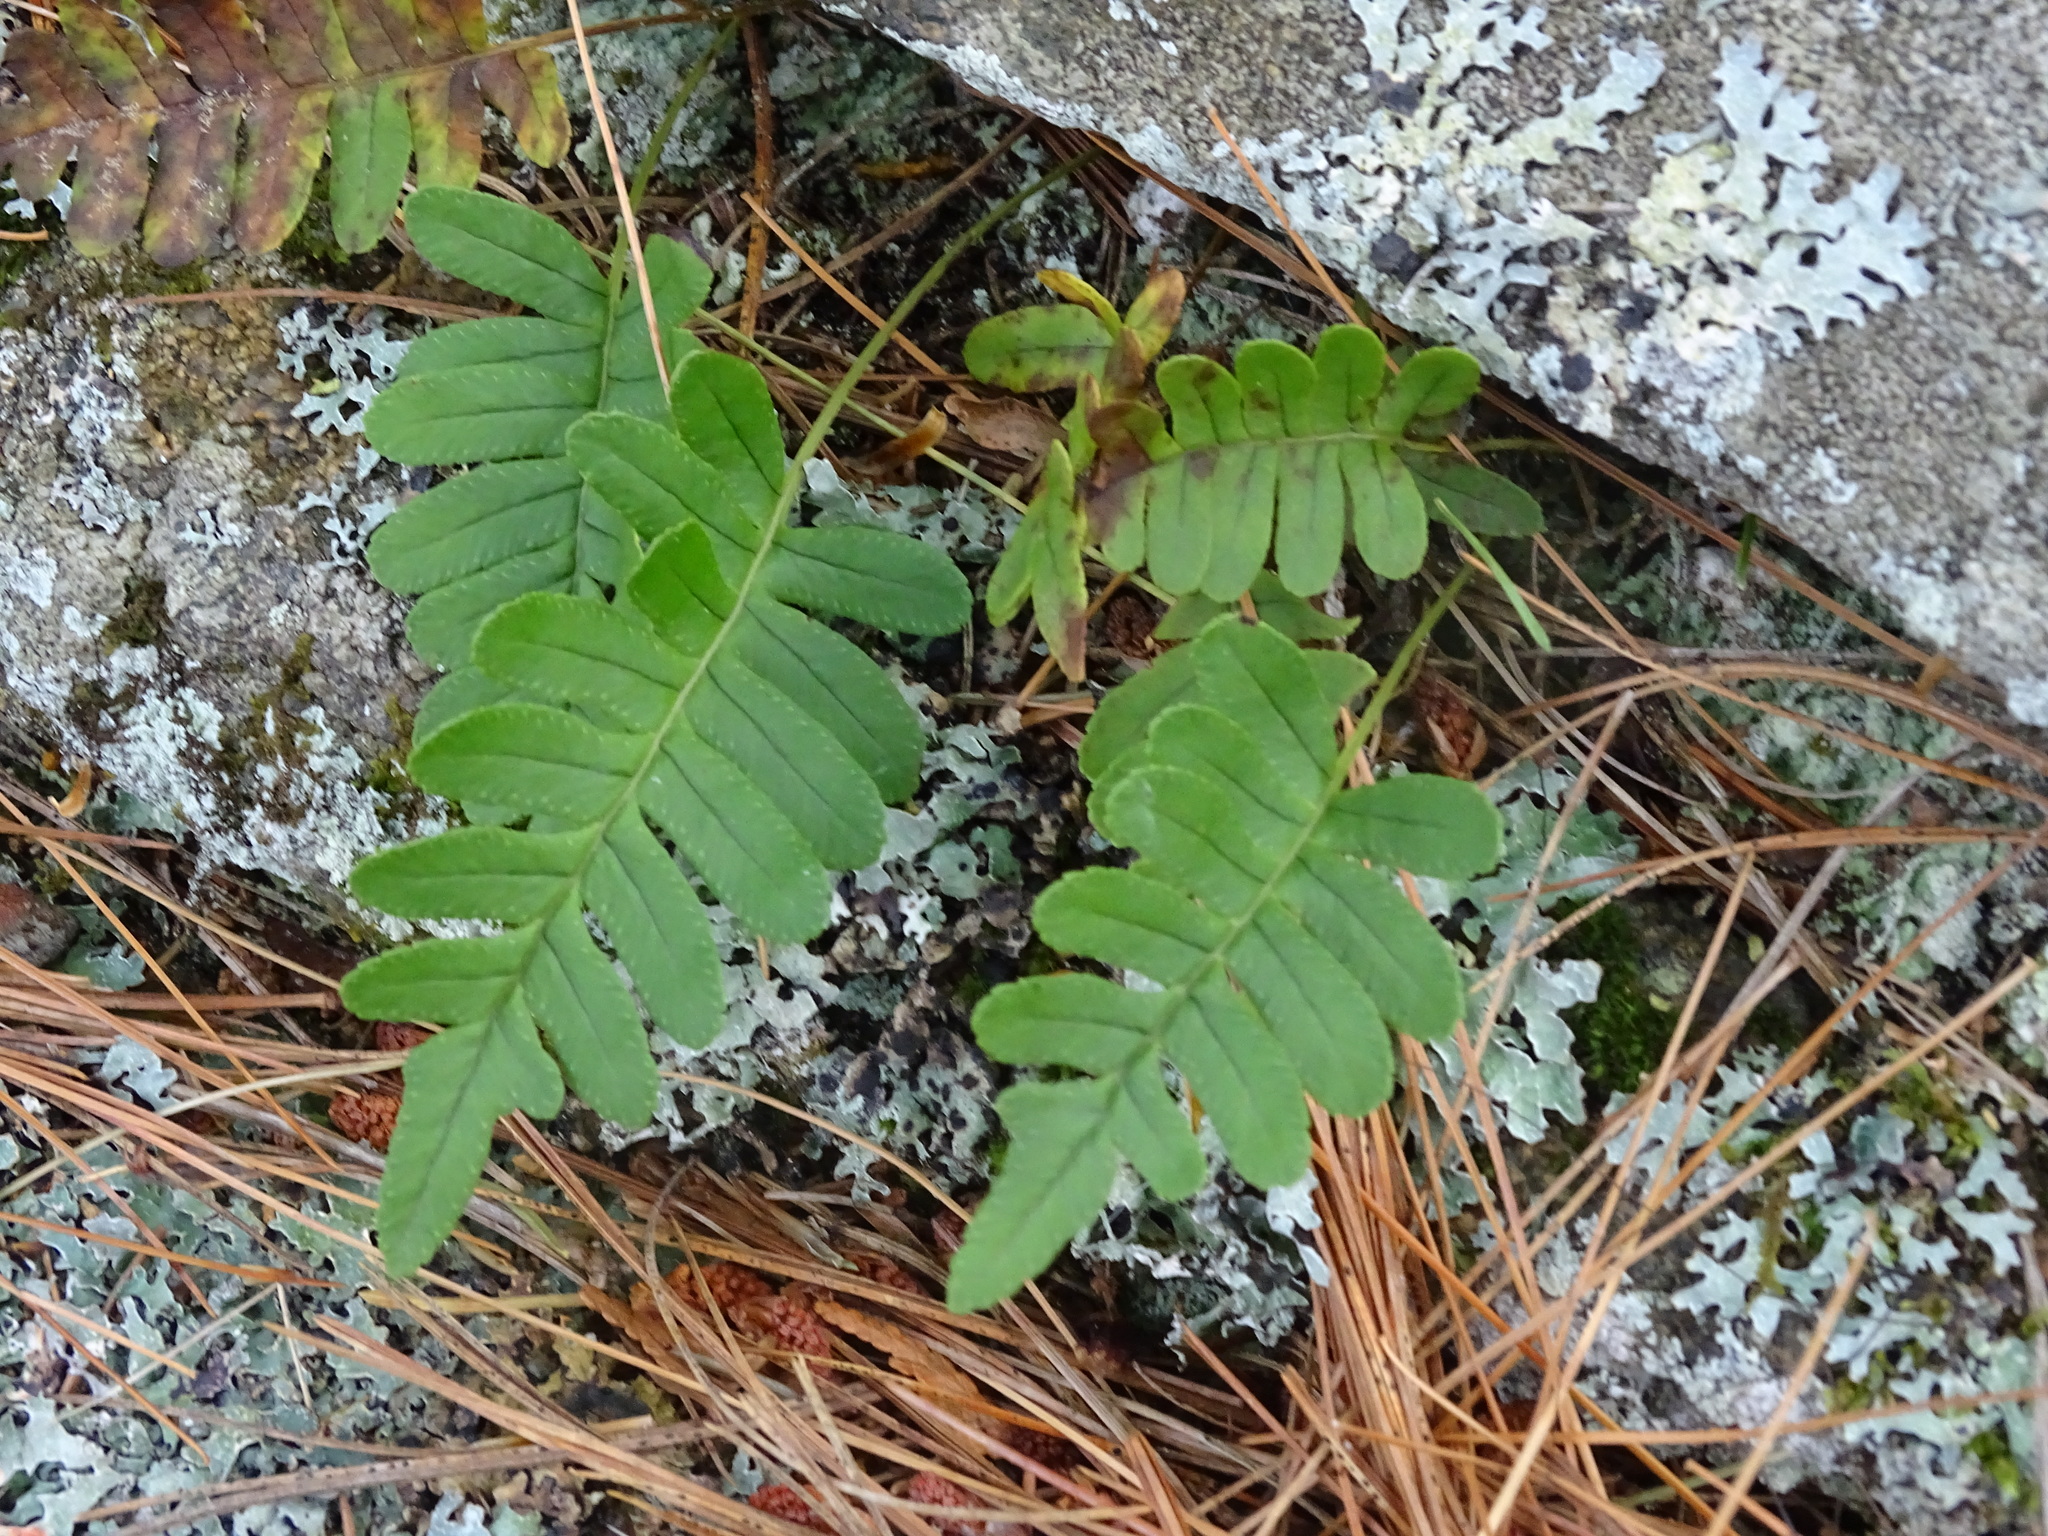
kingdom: Plantae
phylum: Tracheophyta
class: Polypodiopsida
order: Polypodiales
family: Polypodiaceae
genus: Polypodium
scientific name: Polypodium virginianum
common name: American wall fern
